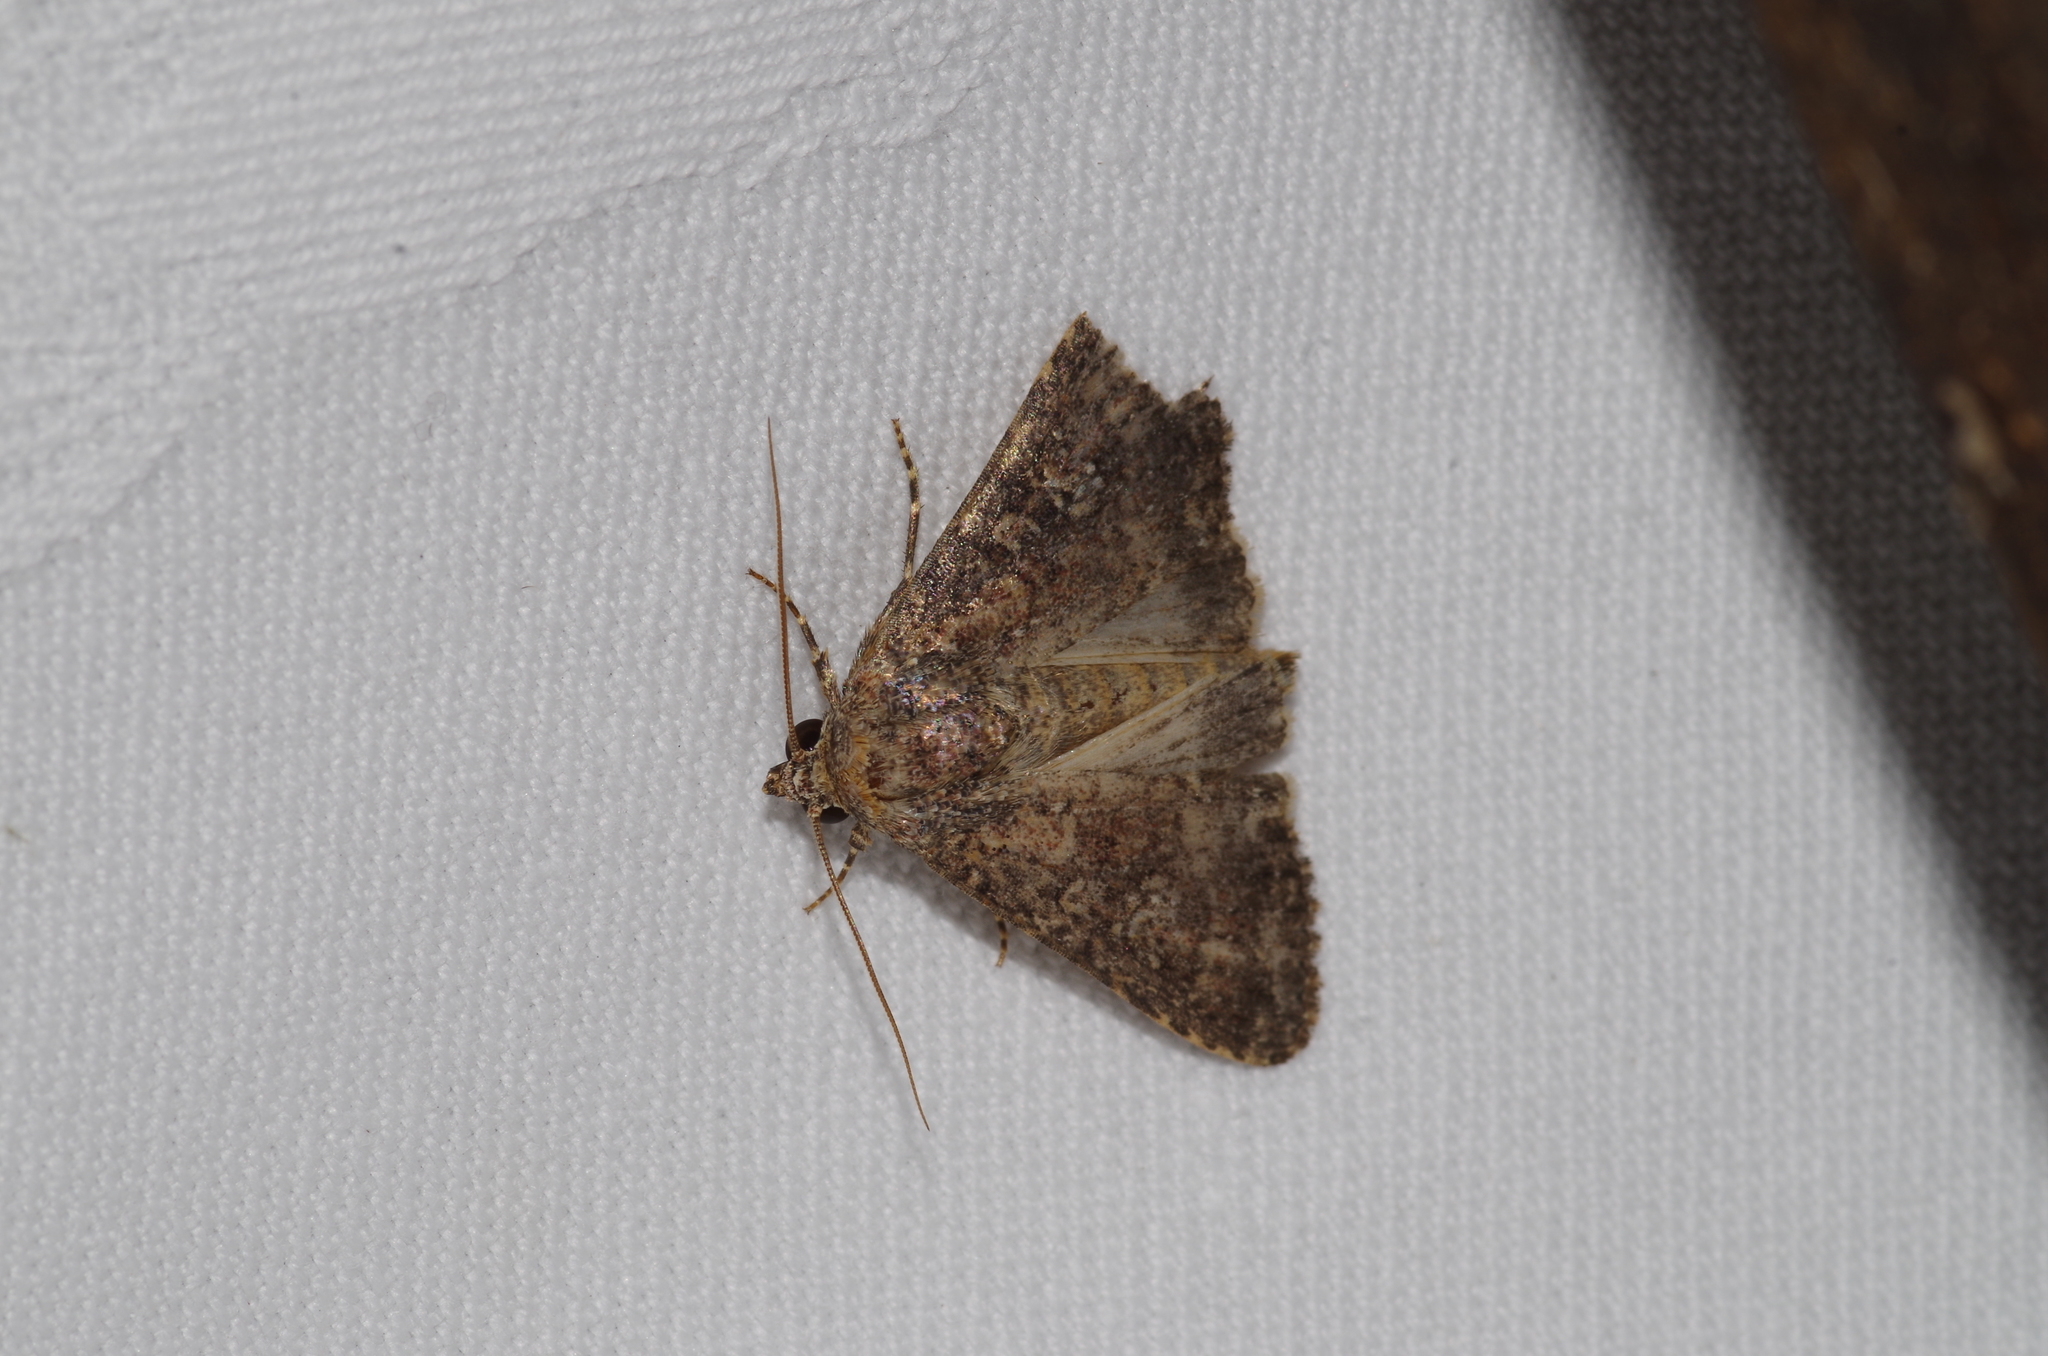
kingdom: Animalia
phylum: Arthropoda
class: Insecta
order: Lepidoptera
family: Noctuidae
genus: Condica
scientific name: Condica illecta
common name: Cutworm
